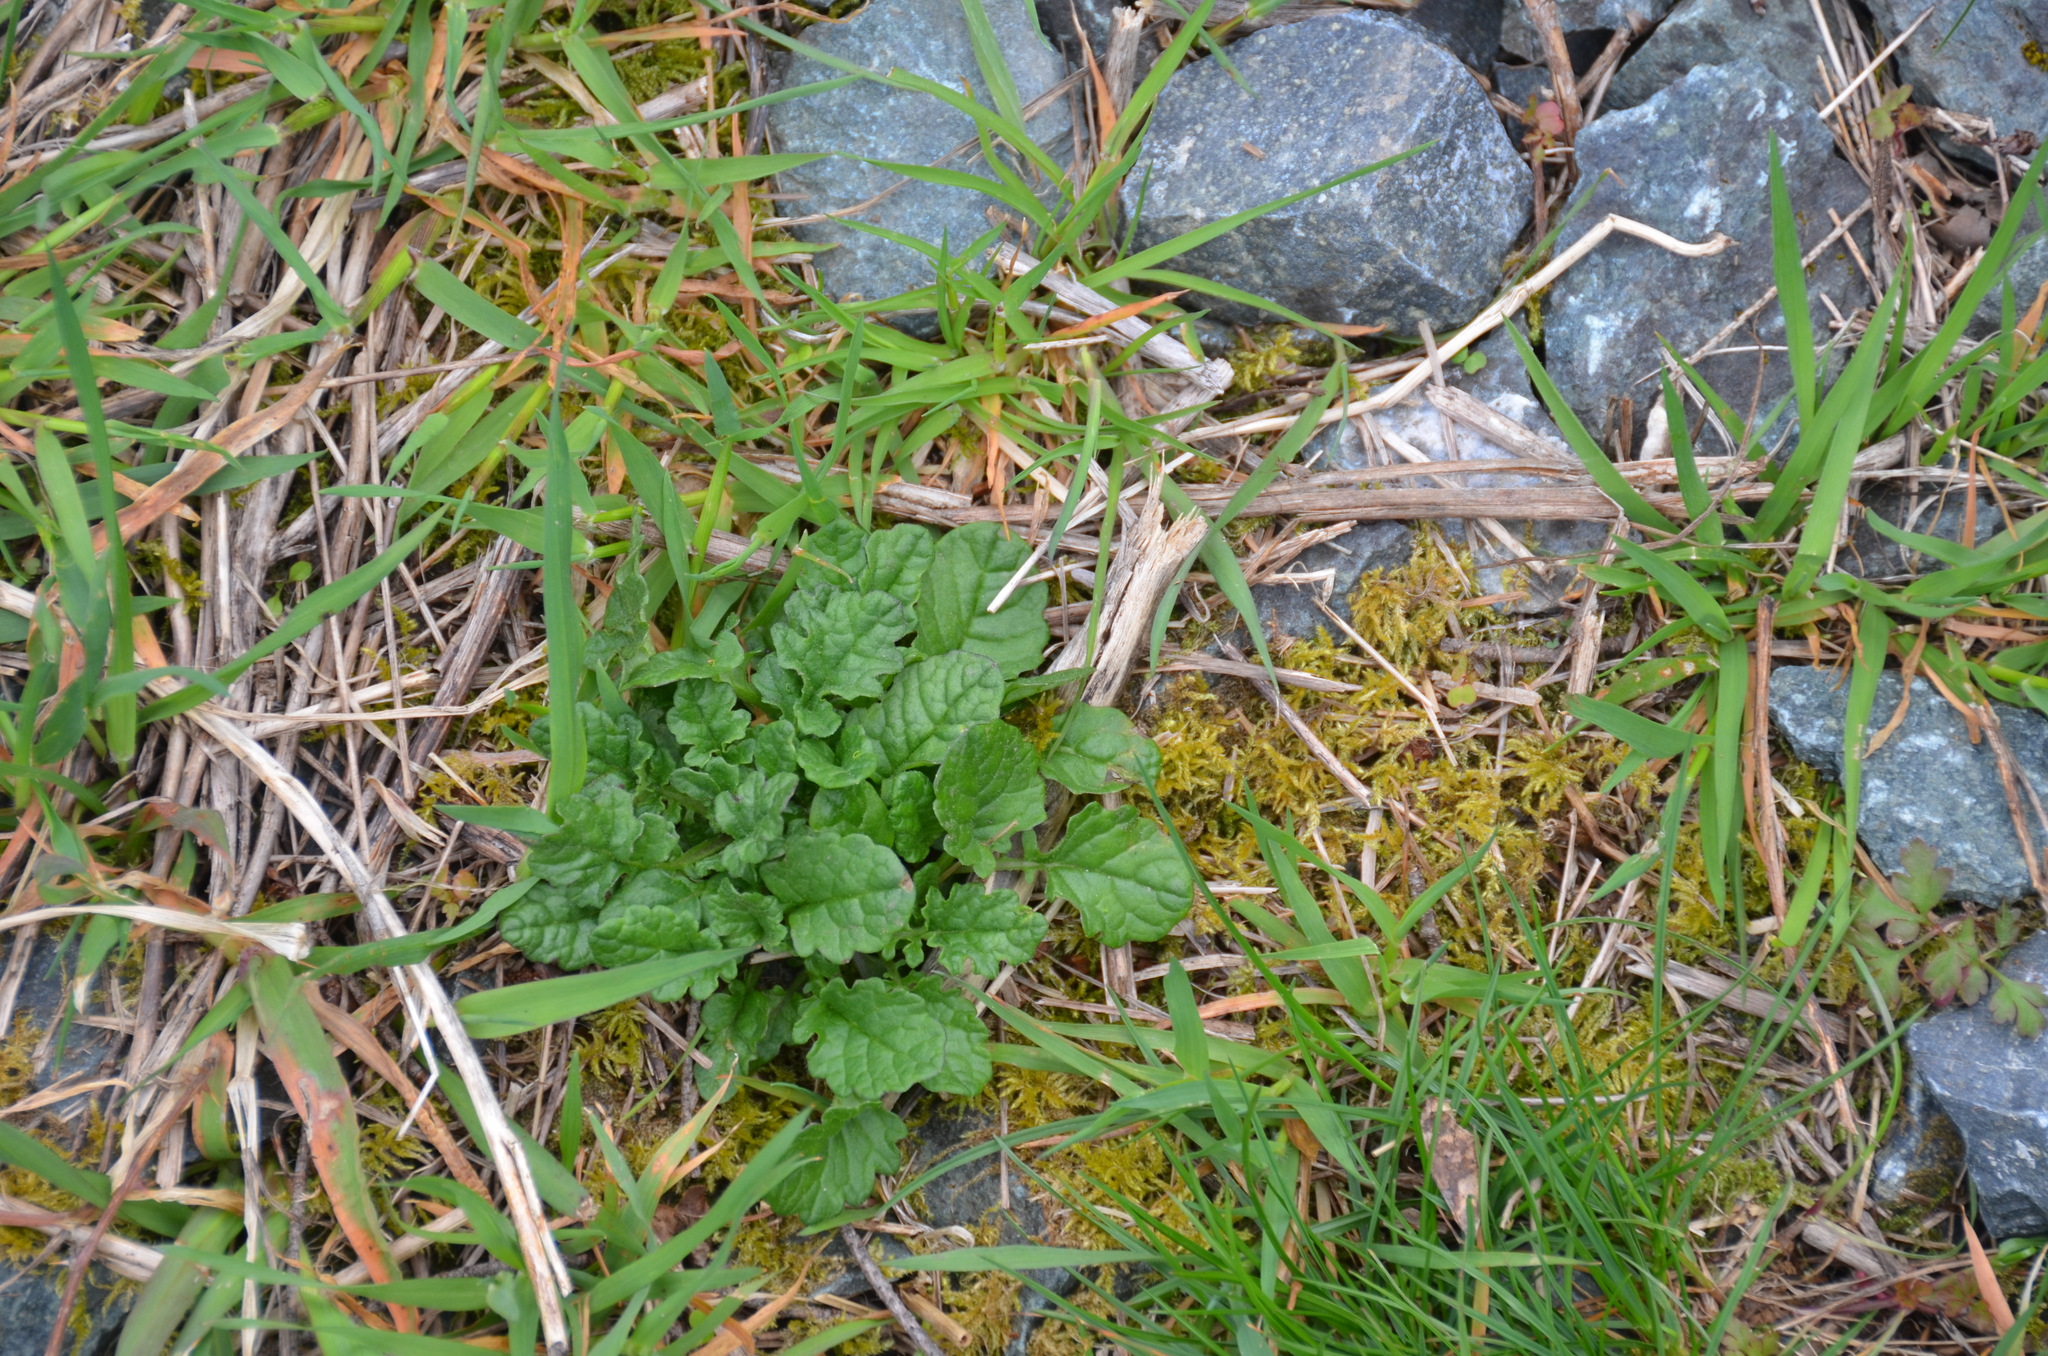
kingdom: Plantae
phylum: Tracheophyta
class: Magnoliopsida
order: Asterales
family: Asteraceae
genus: Jacobaea
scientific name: Jacobaea vulgaris
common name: Stinking willie
